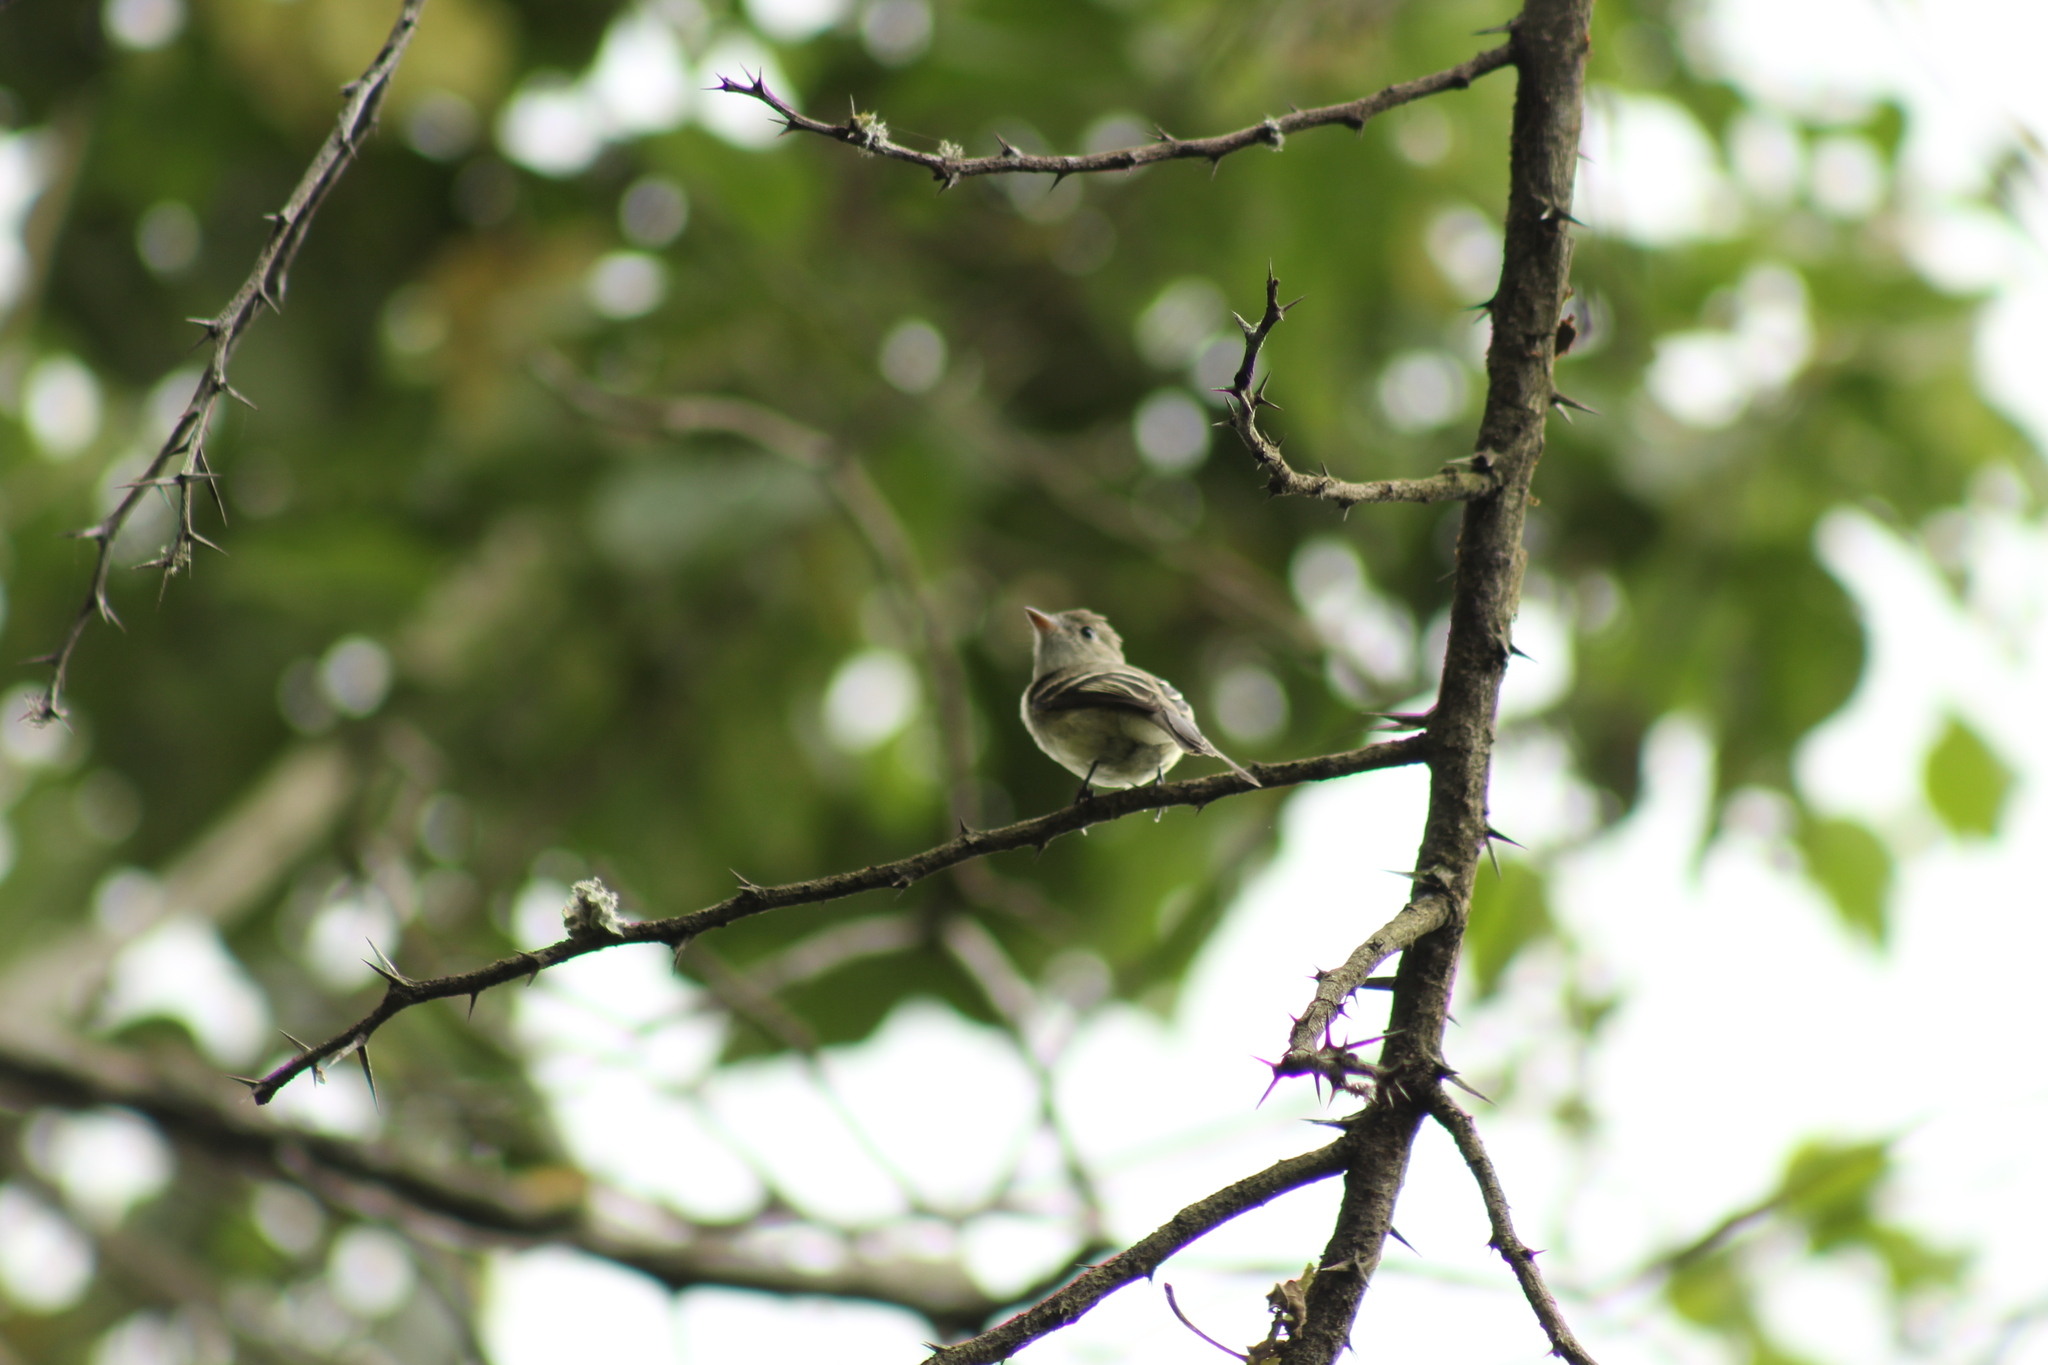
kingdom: Animalia
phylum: Chordata
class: Aves
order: Passeriformes
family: Tyrannidae
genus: Empidonax
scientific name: Empidonax
